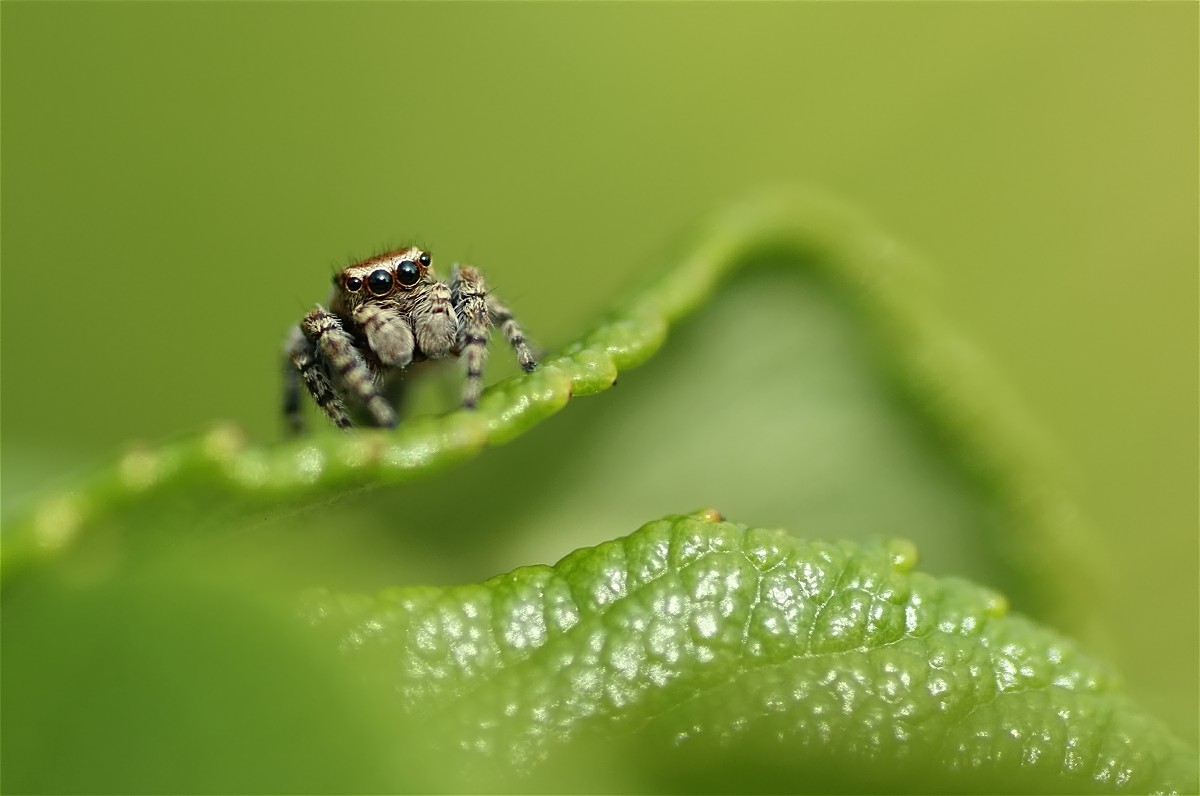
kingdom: Animalia
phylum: Arthropoda
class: Arachnida
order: Araneae
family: Salticidae
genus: Evarcha
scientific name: Evarcha falcata
